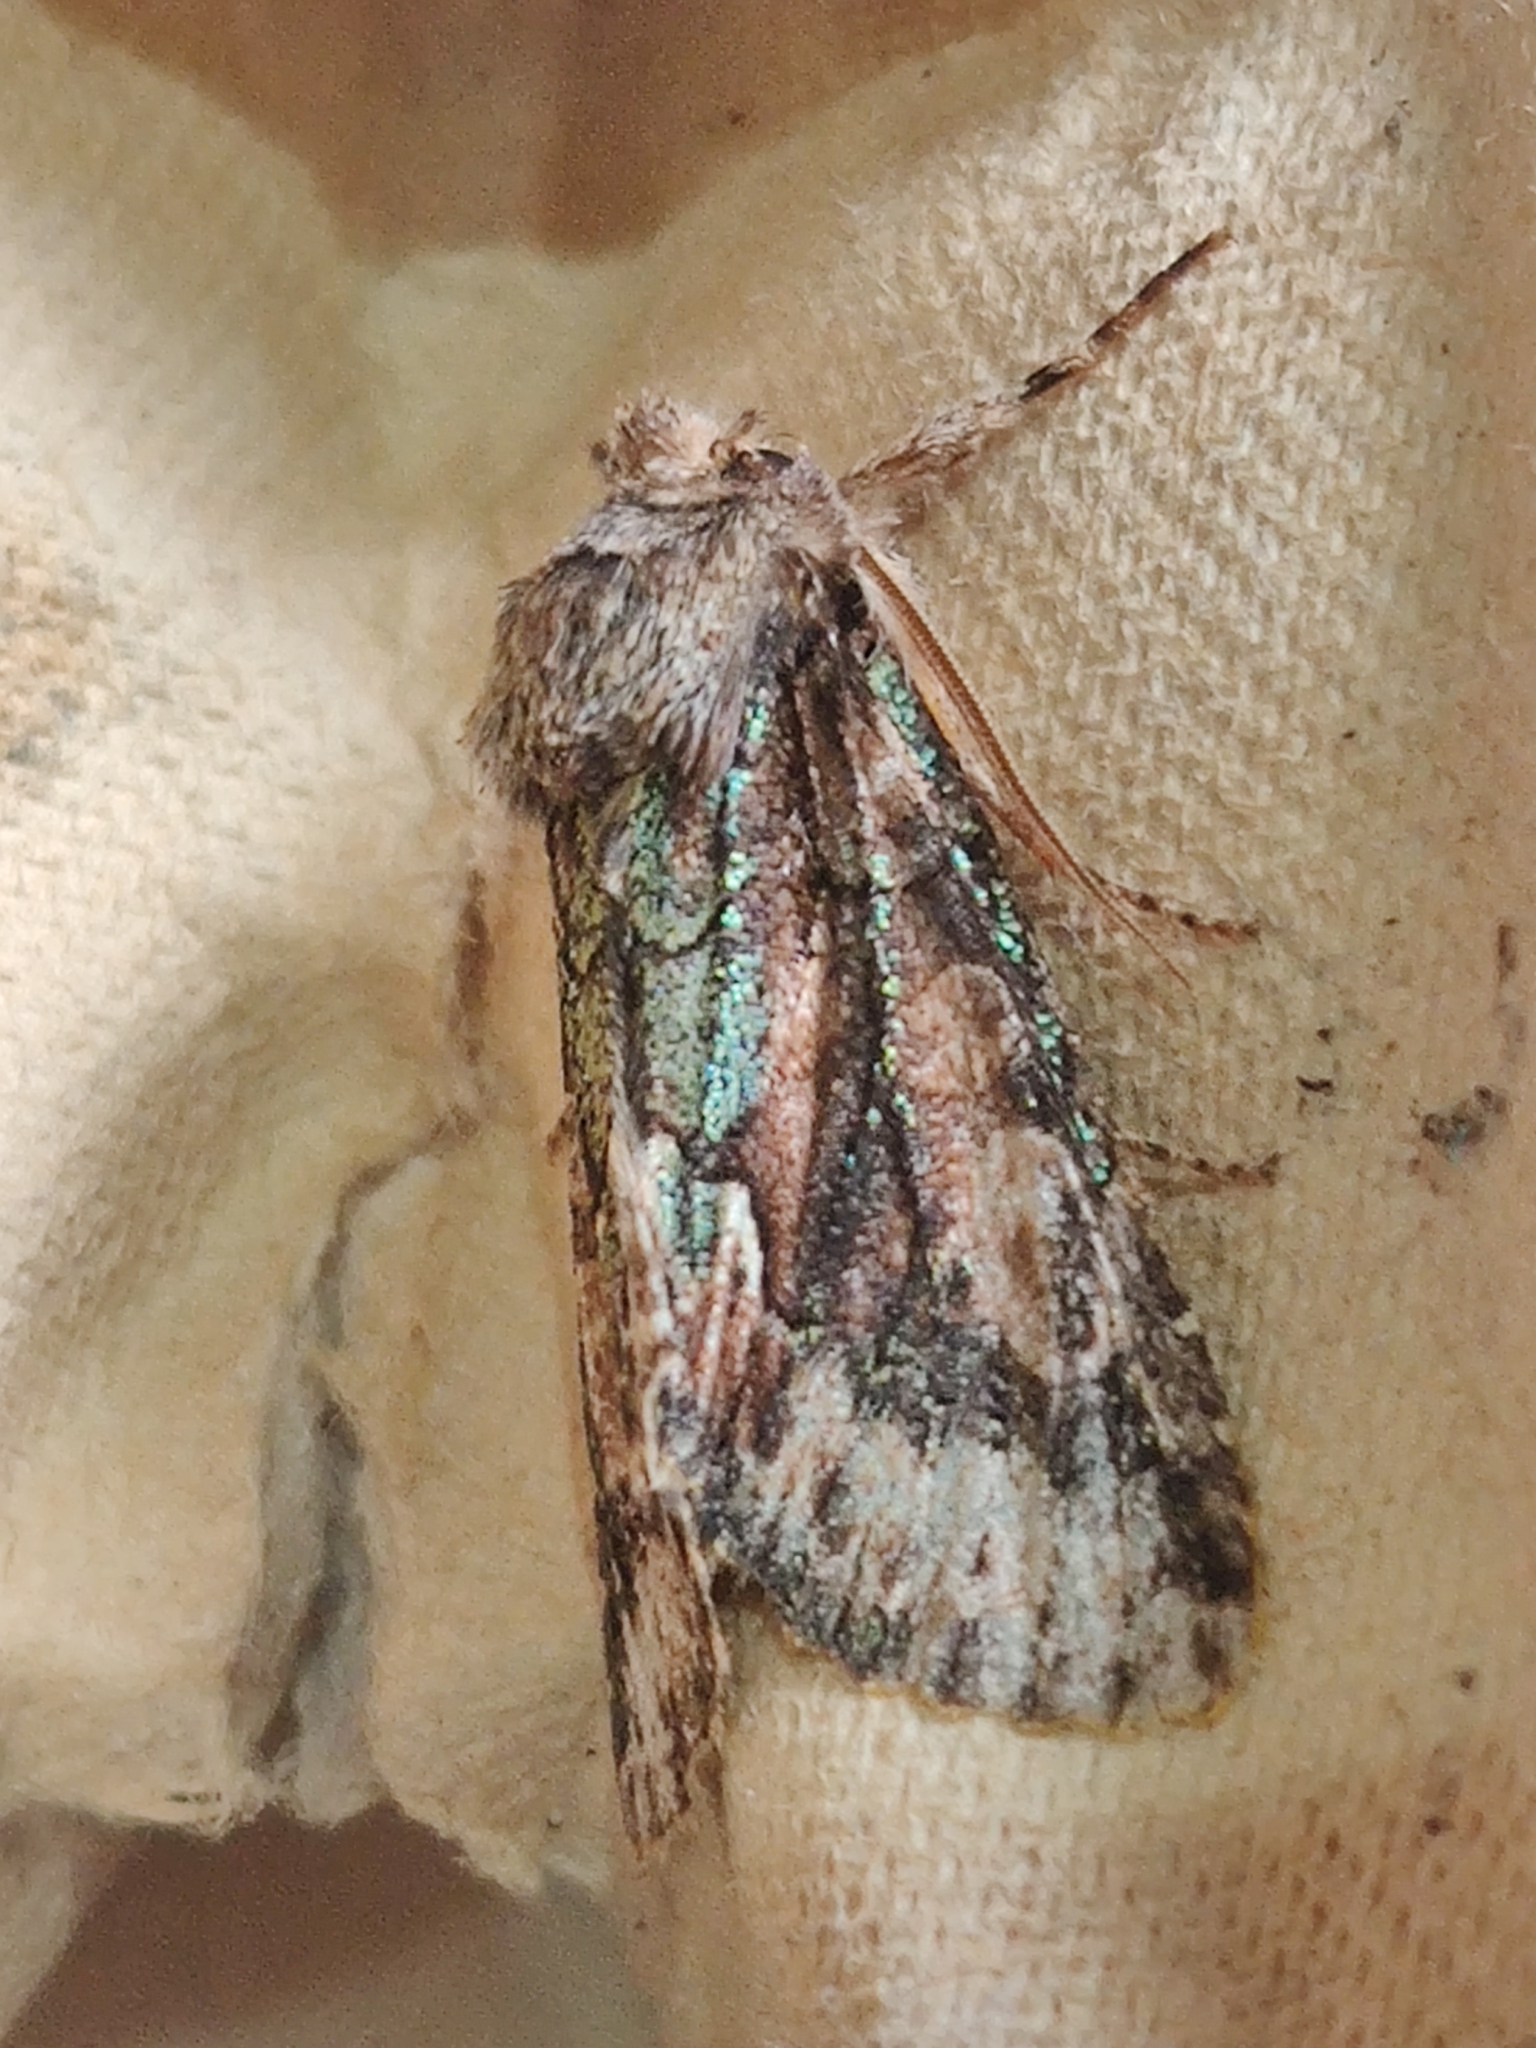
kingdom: Animalia
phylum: Arthropoda
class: Insecta
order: Lepidoptera
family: Noctuidae
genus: Allophyes
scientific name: Allophyes oxyacanthae
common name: Green-brindled crescent
